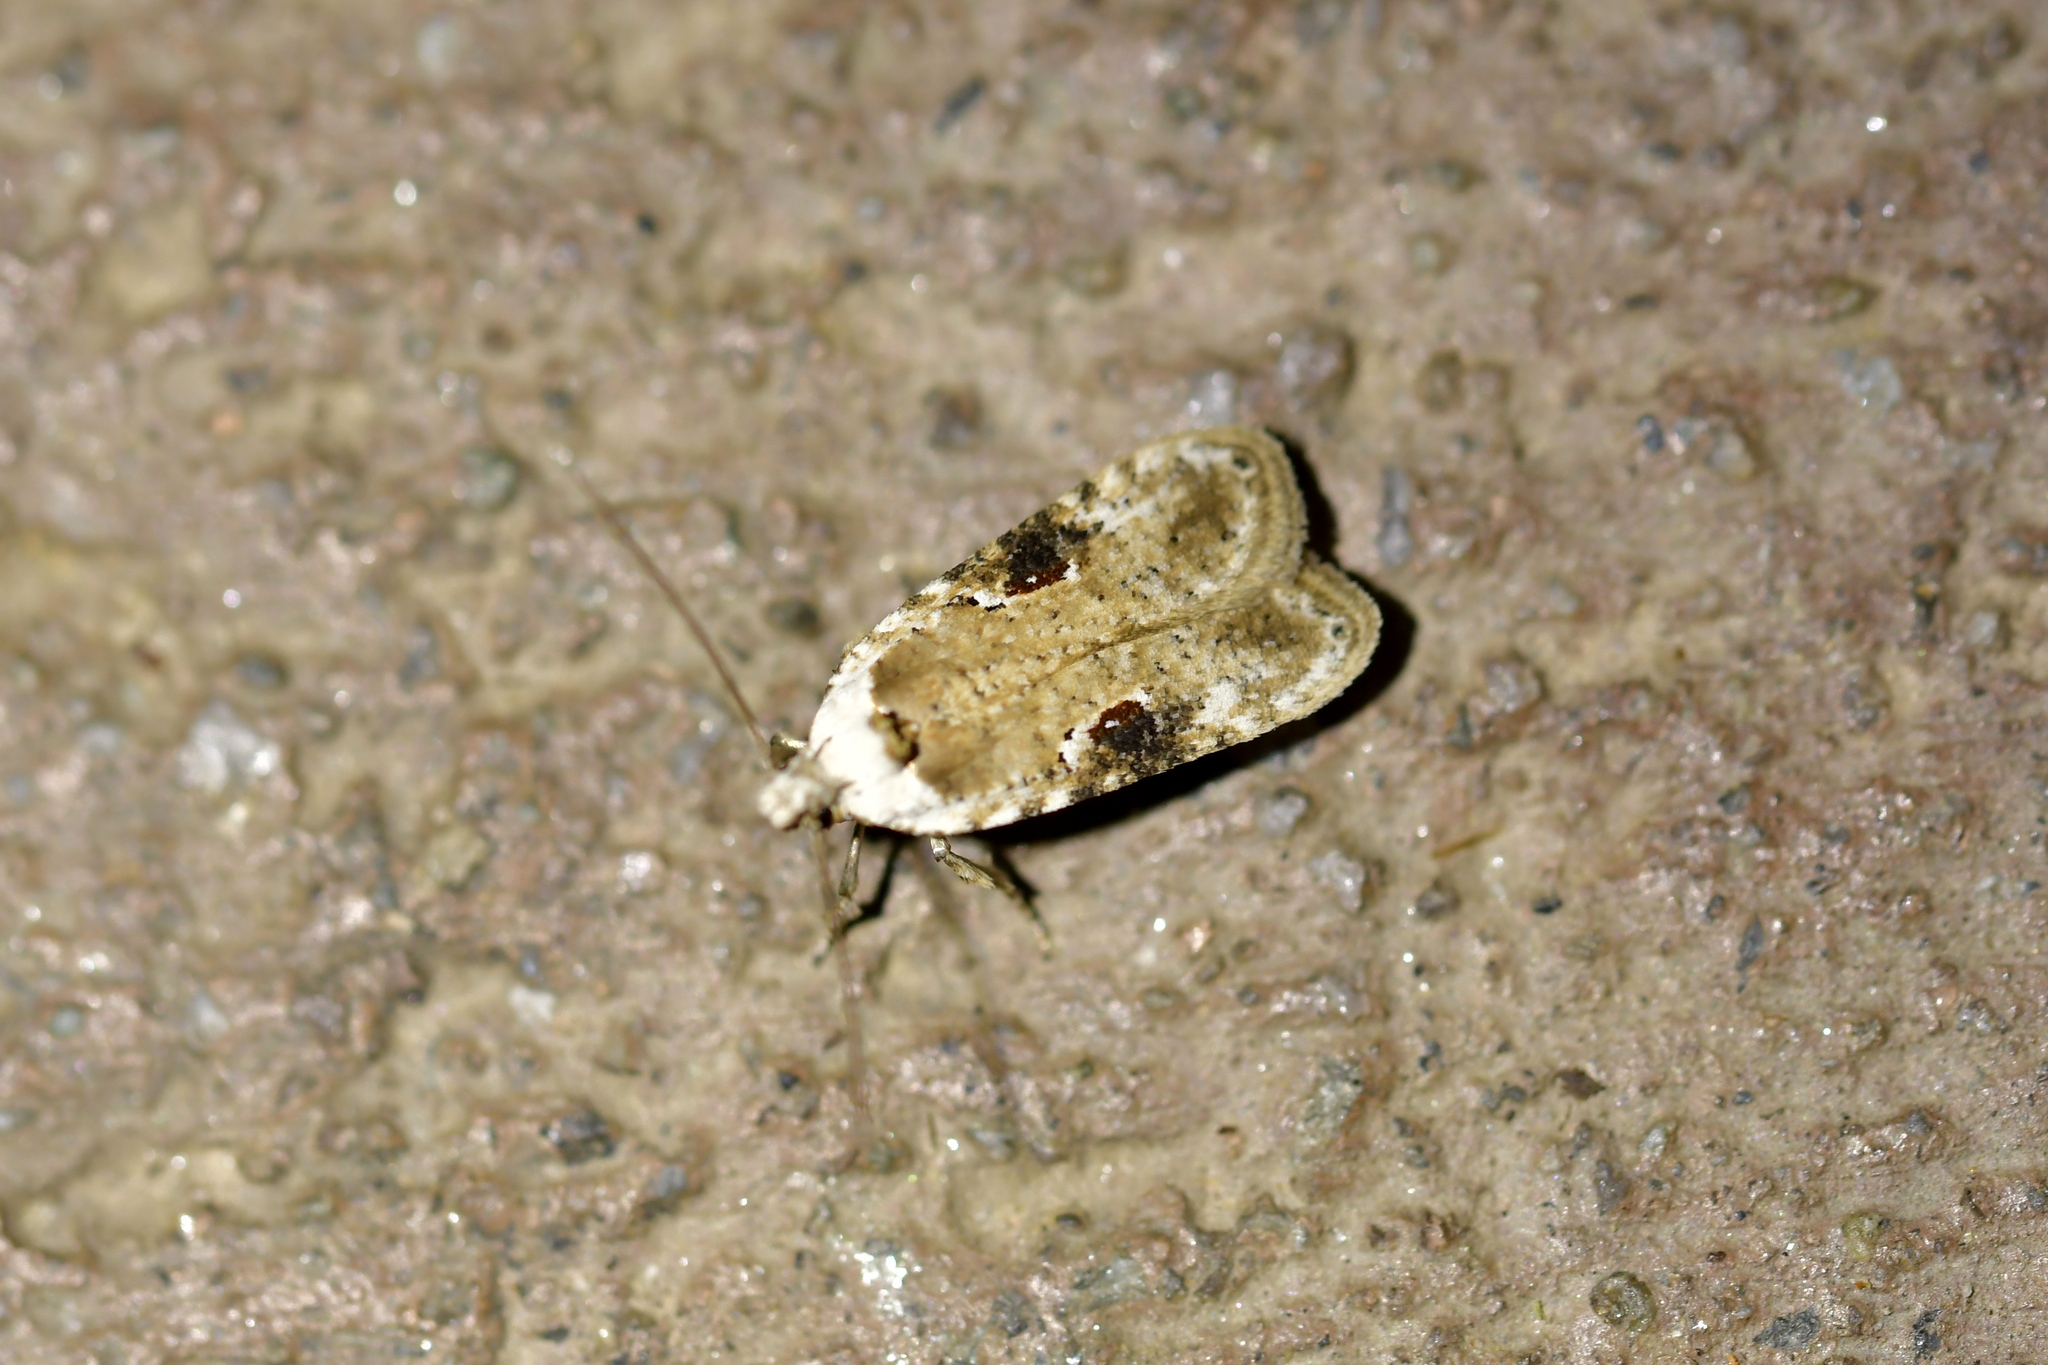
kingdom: Animalia
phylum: Arthropoda
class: Insecta
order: Lepidoptera
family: Depressariidae
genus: Agonopterix
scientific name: Agonopterix alstroemeriana
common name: Moth
